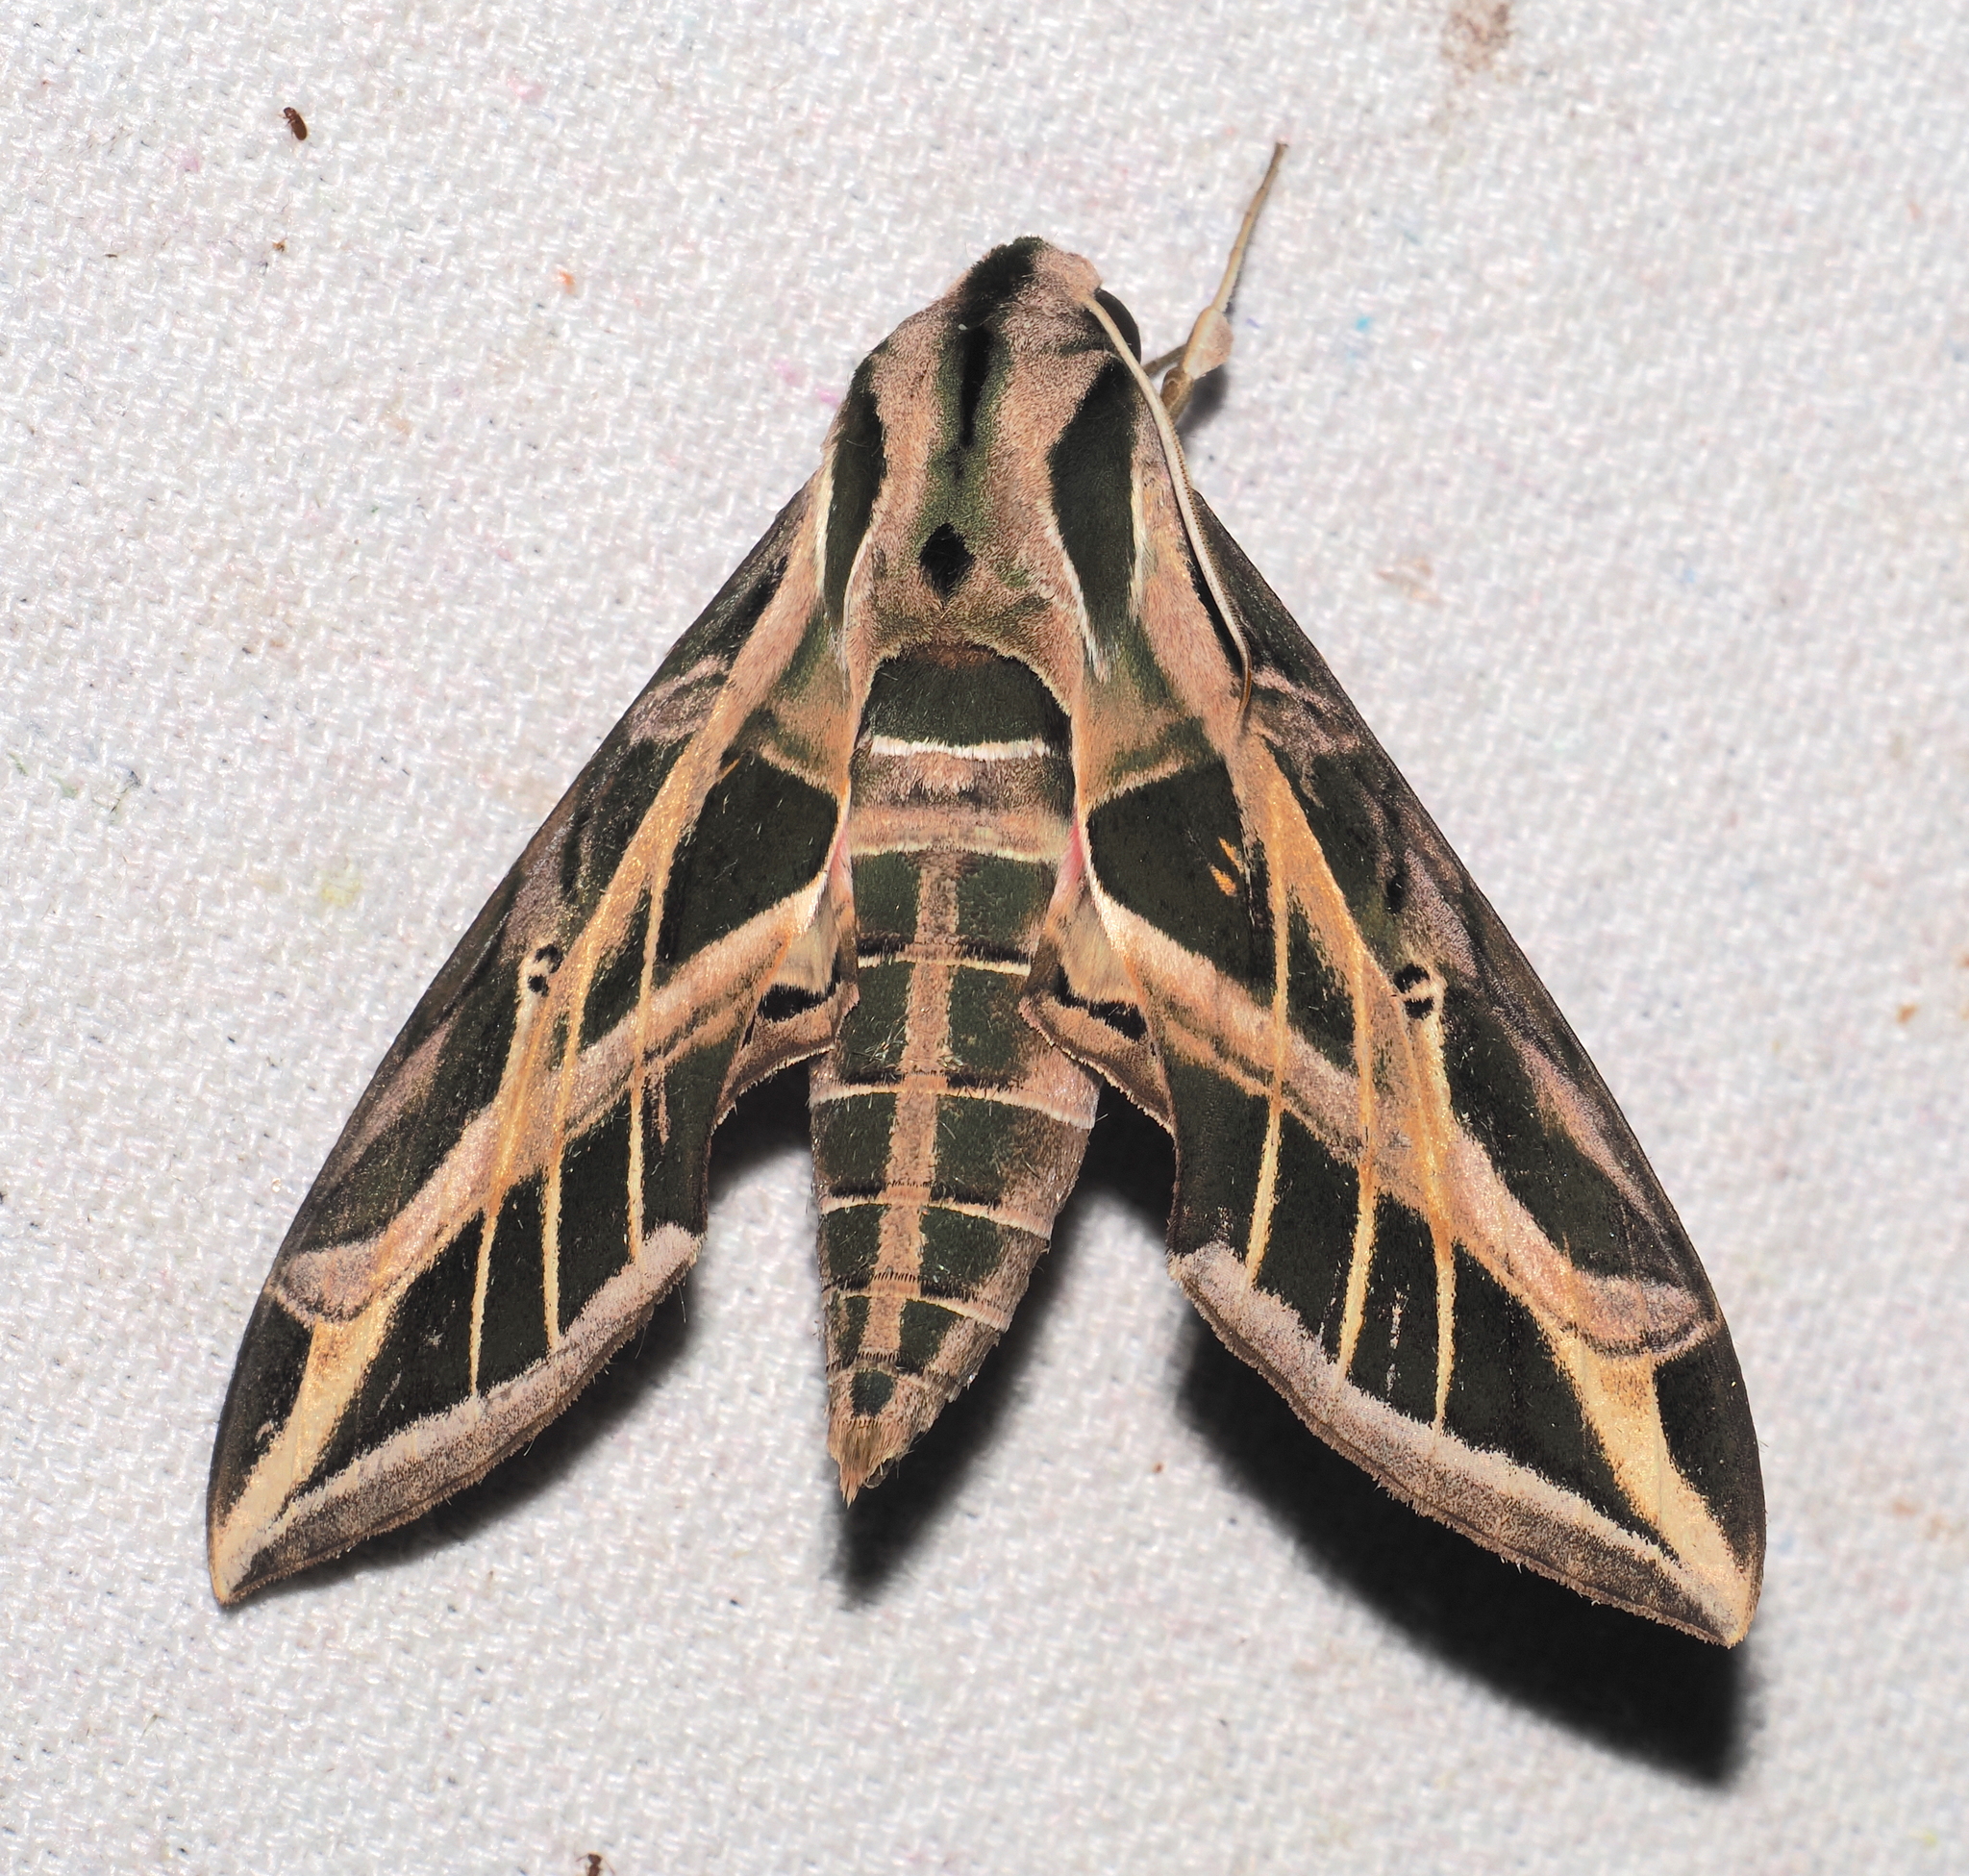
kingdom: Animalia
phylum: Arthropoda
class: Insecta
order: Lepidoptera
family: Sphingidae
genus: Eumorpha
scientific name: Eumorpha vitis
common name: Vine sphinx
